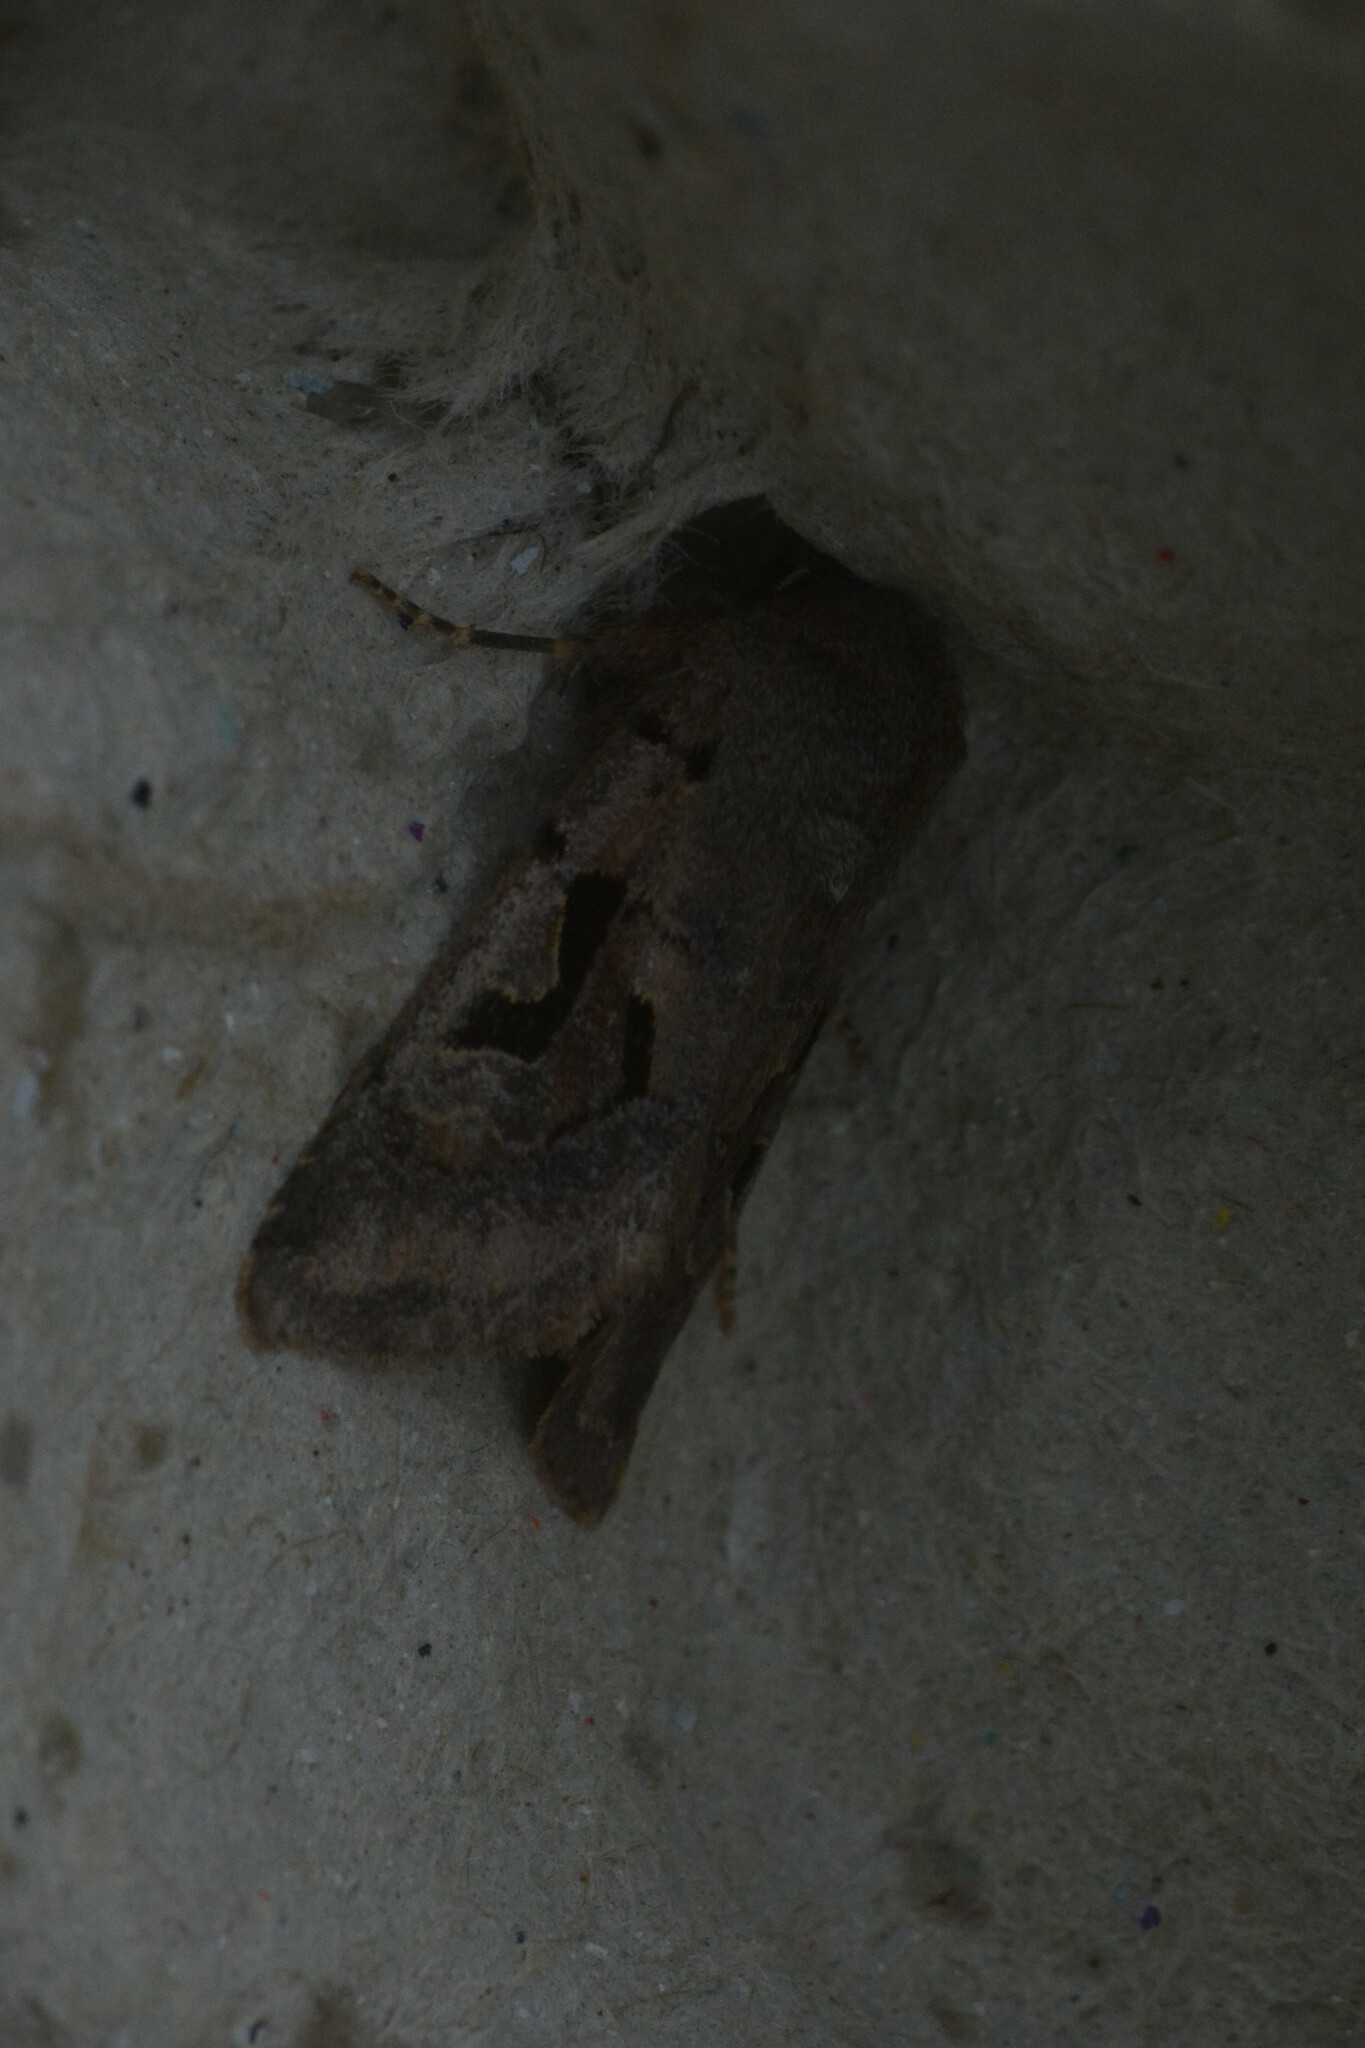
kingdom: Animalia
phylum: Arthropoda
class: Insecta
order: Lepidoptera
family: Noctuidae
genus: Orthosia
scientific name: Orthosia gothica
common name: Hebrew character
